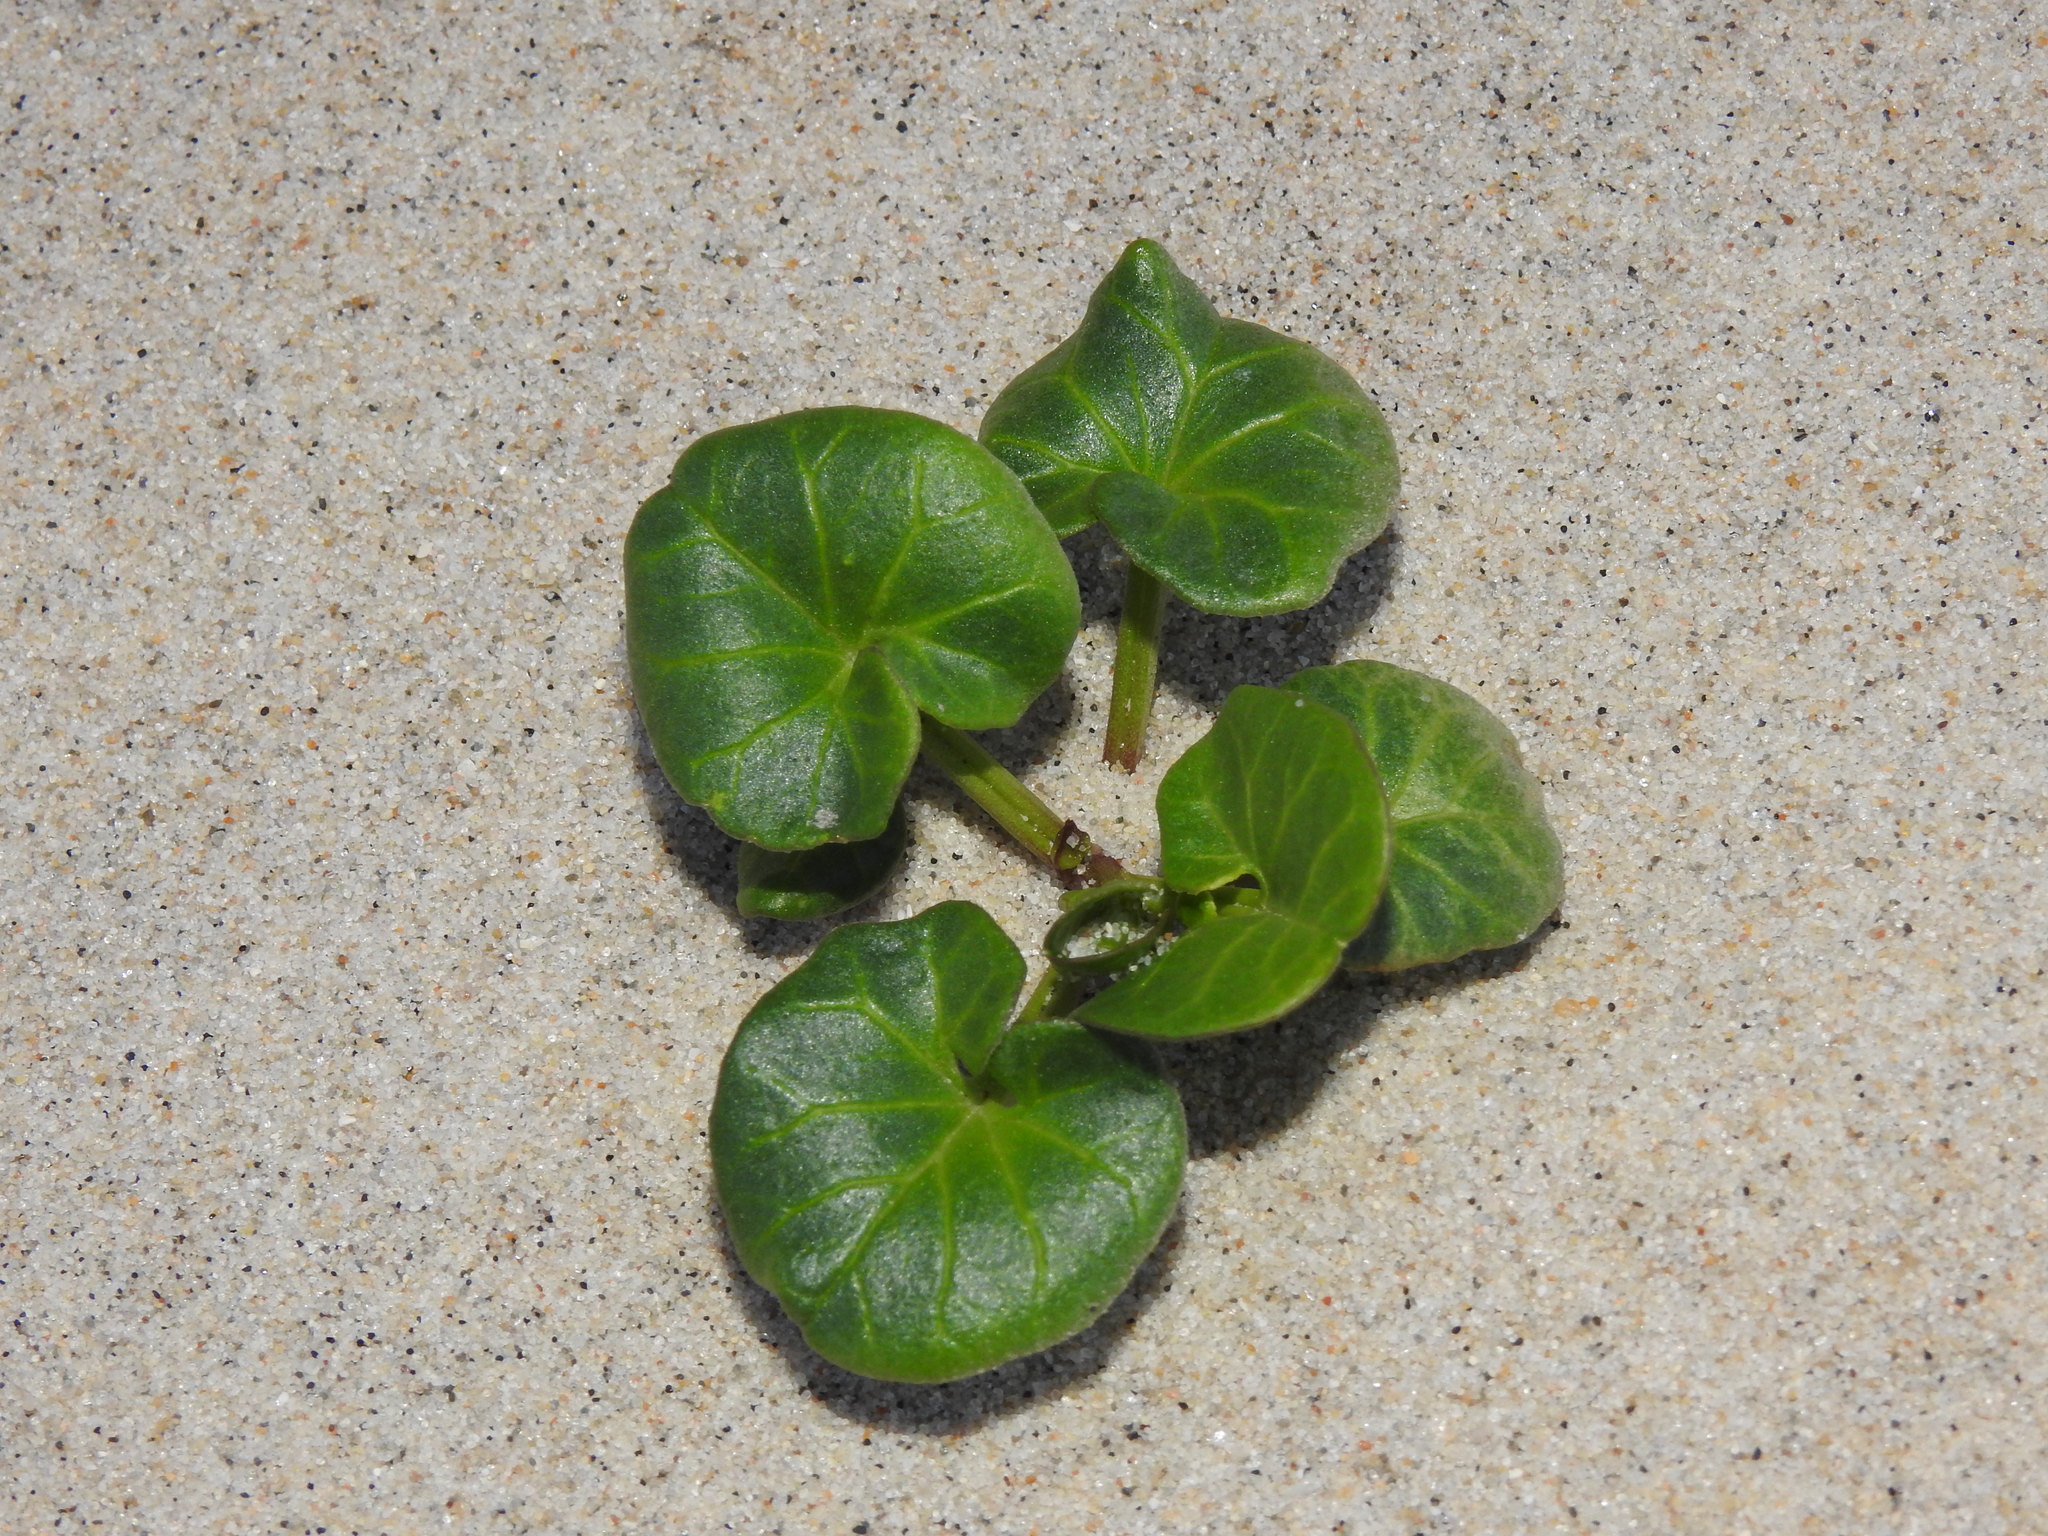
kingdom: Plantae
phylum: Tracheophyta
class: Magnoliopsida
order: Solanales
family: Convolvulaceae
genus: Calystegia
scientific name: Calystegia soldanella
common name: Sea bindweed
